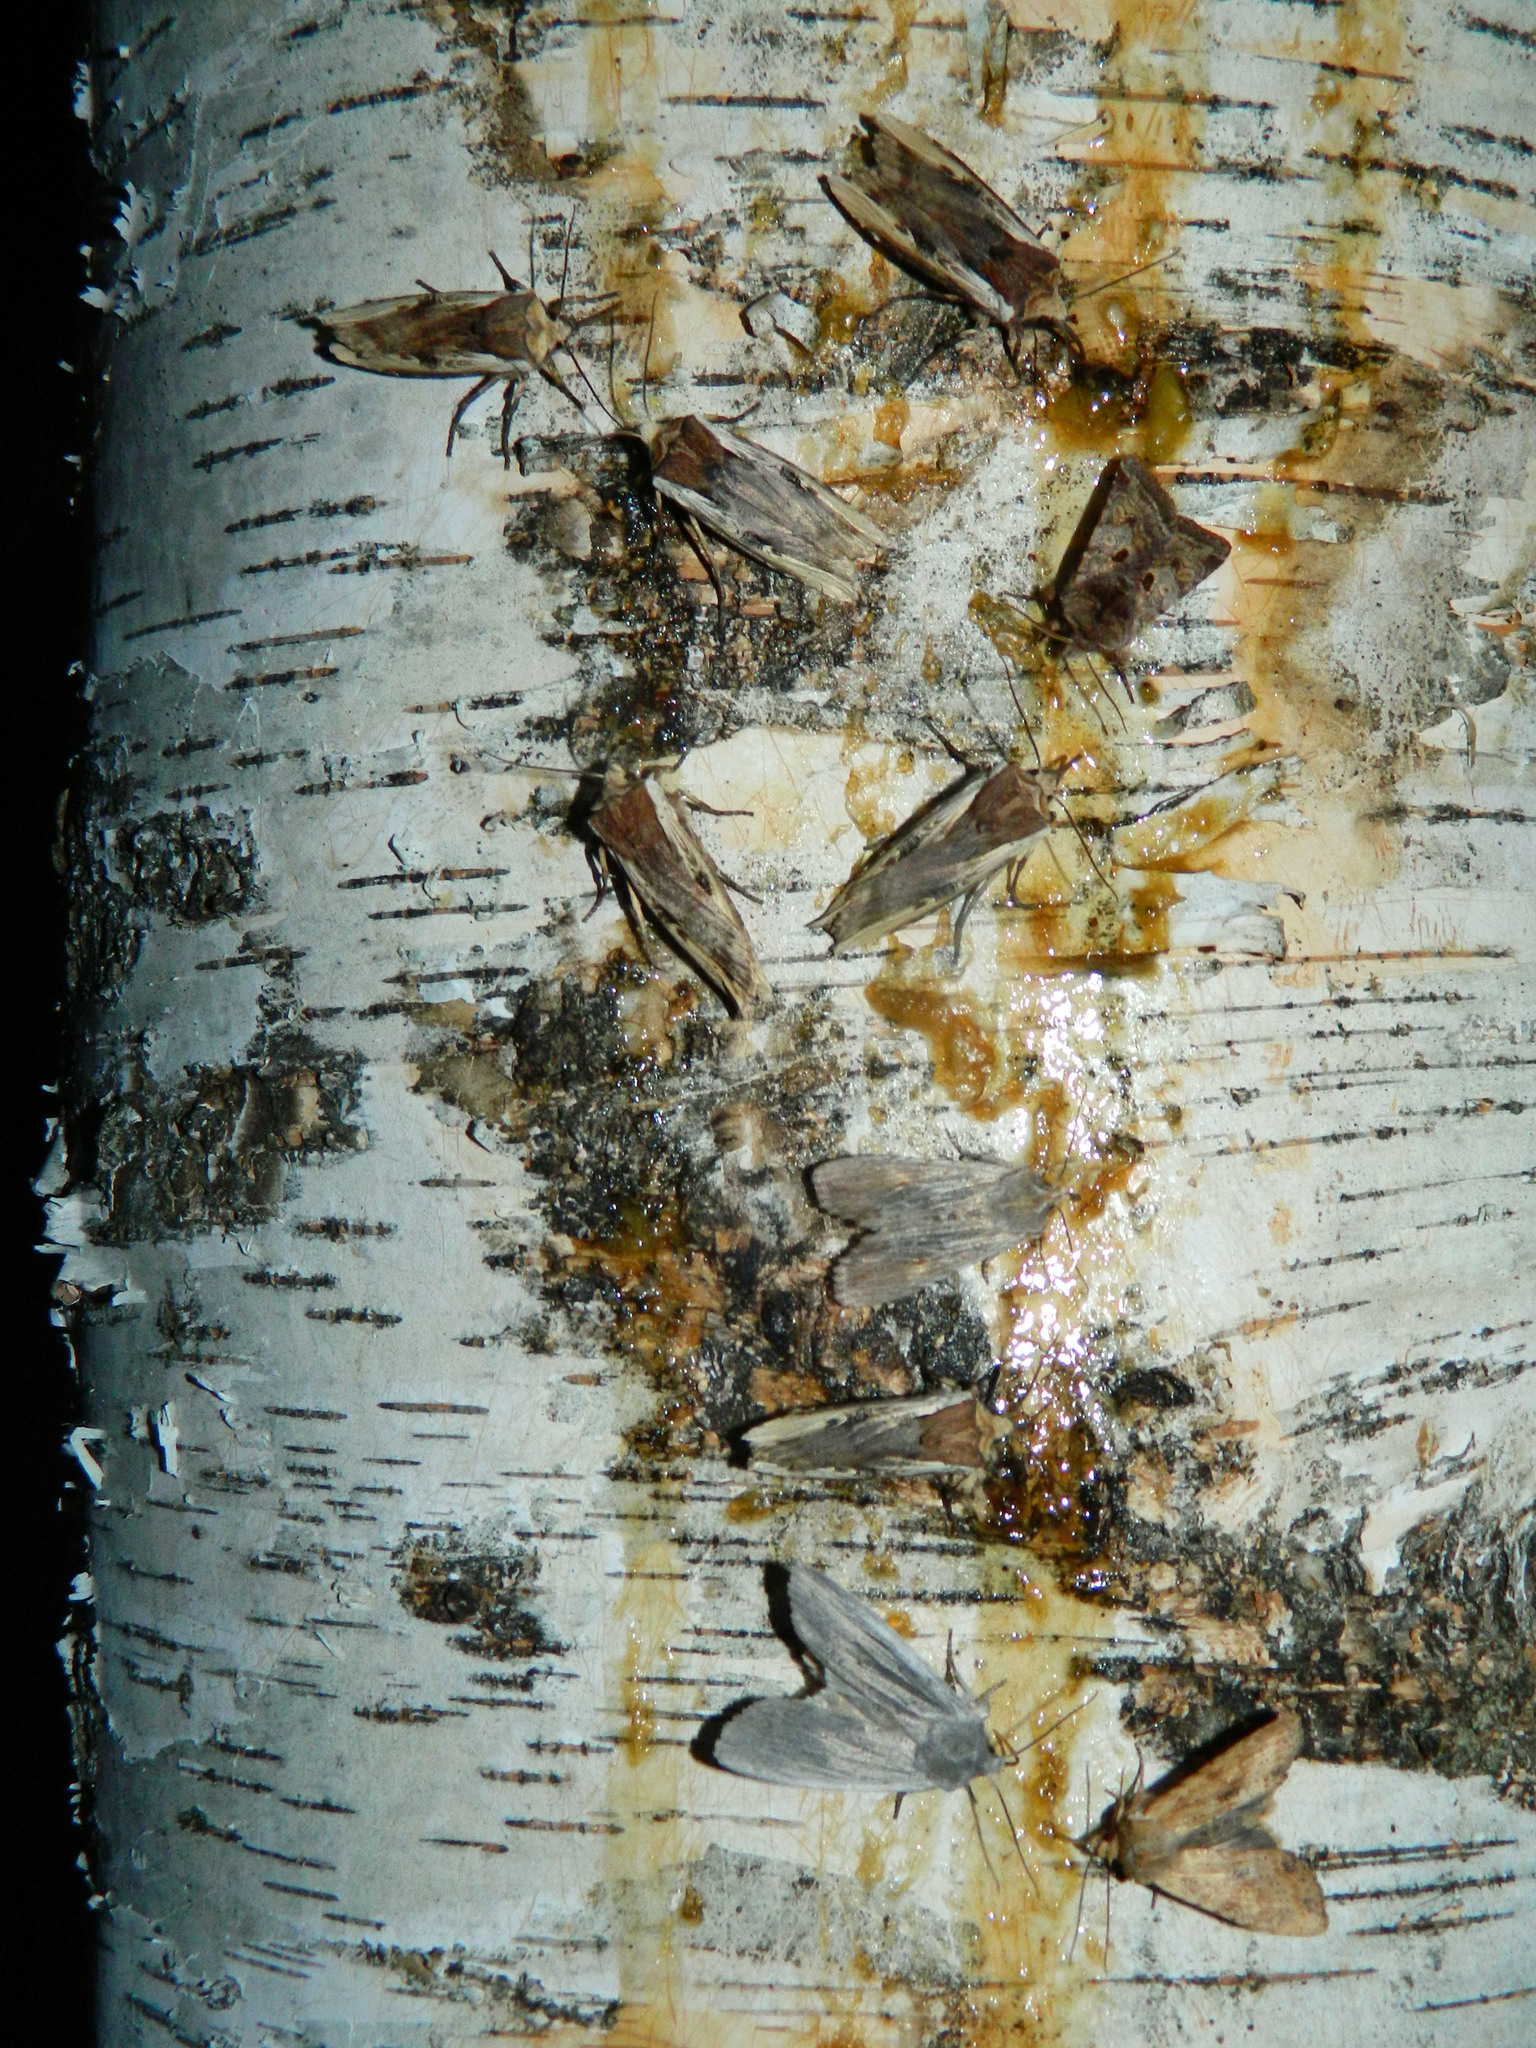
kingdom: Animalia
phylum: Arthropoda
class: Insecta
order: Lepidoptera
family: Noctuidae
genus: Xylena
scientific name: Xylena curvimacula
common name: Dot-and-dash swordgrass moth
